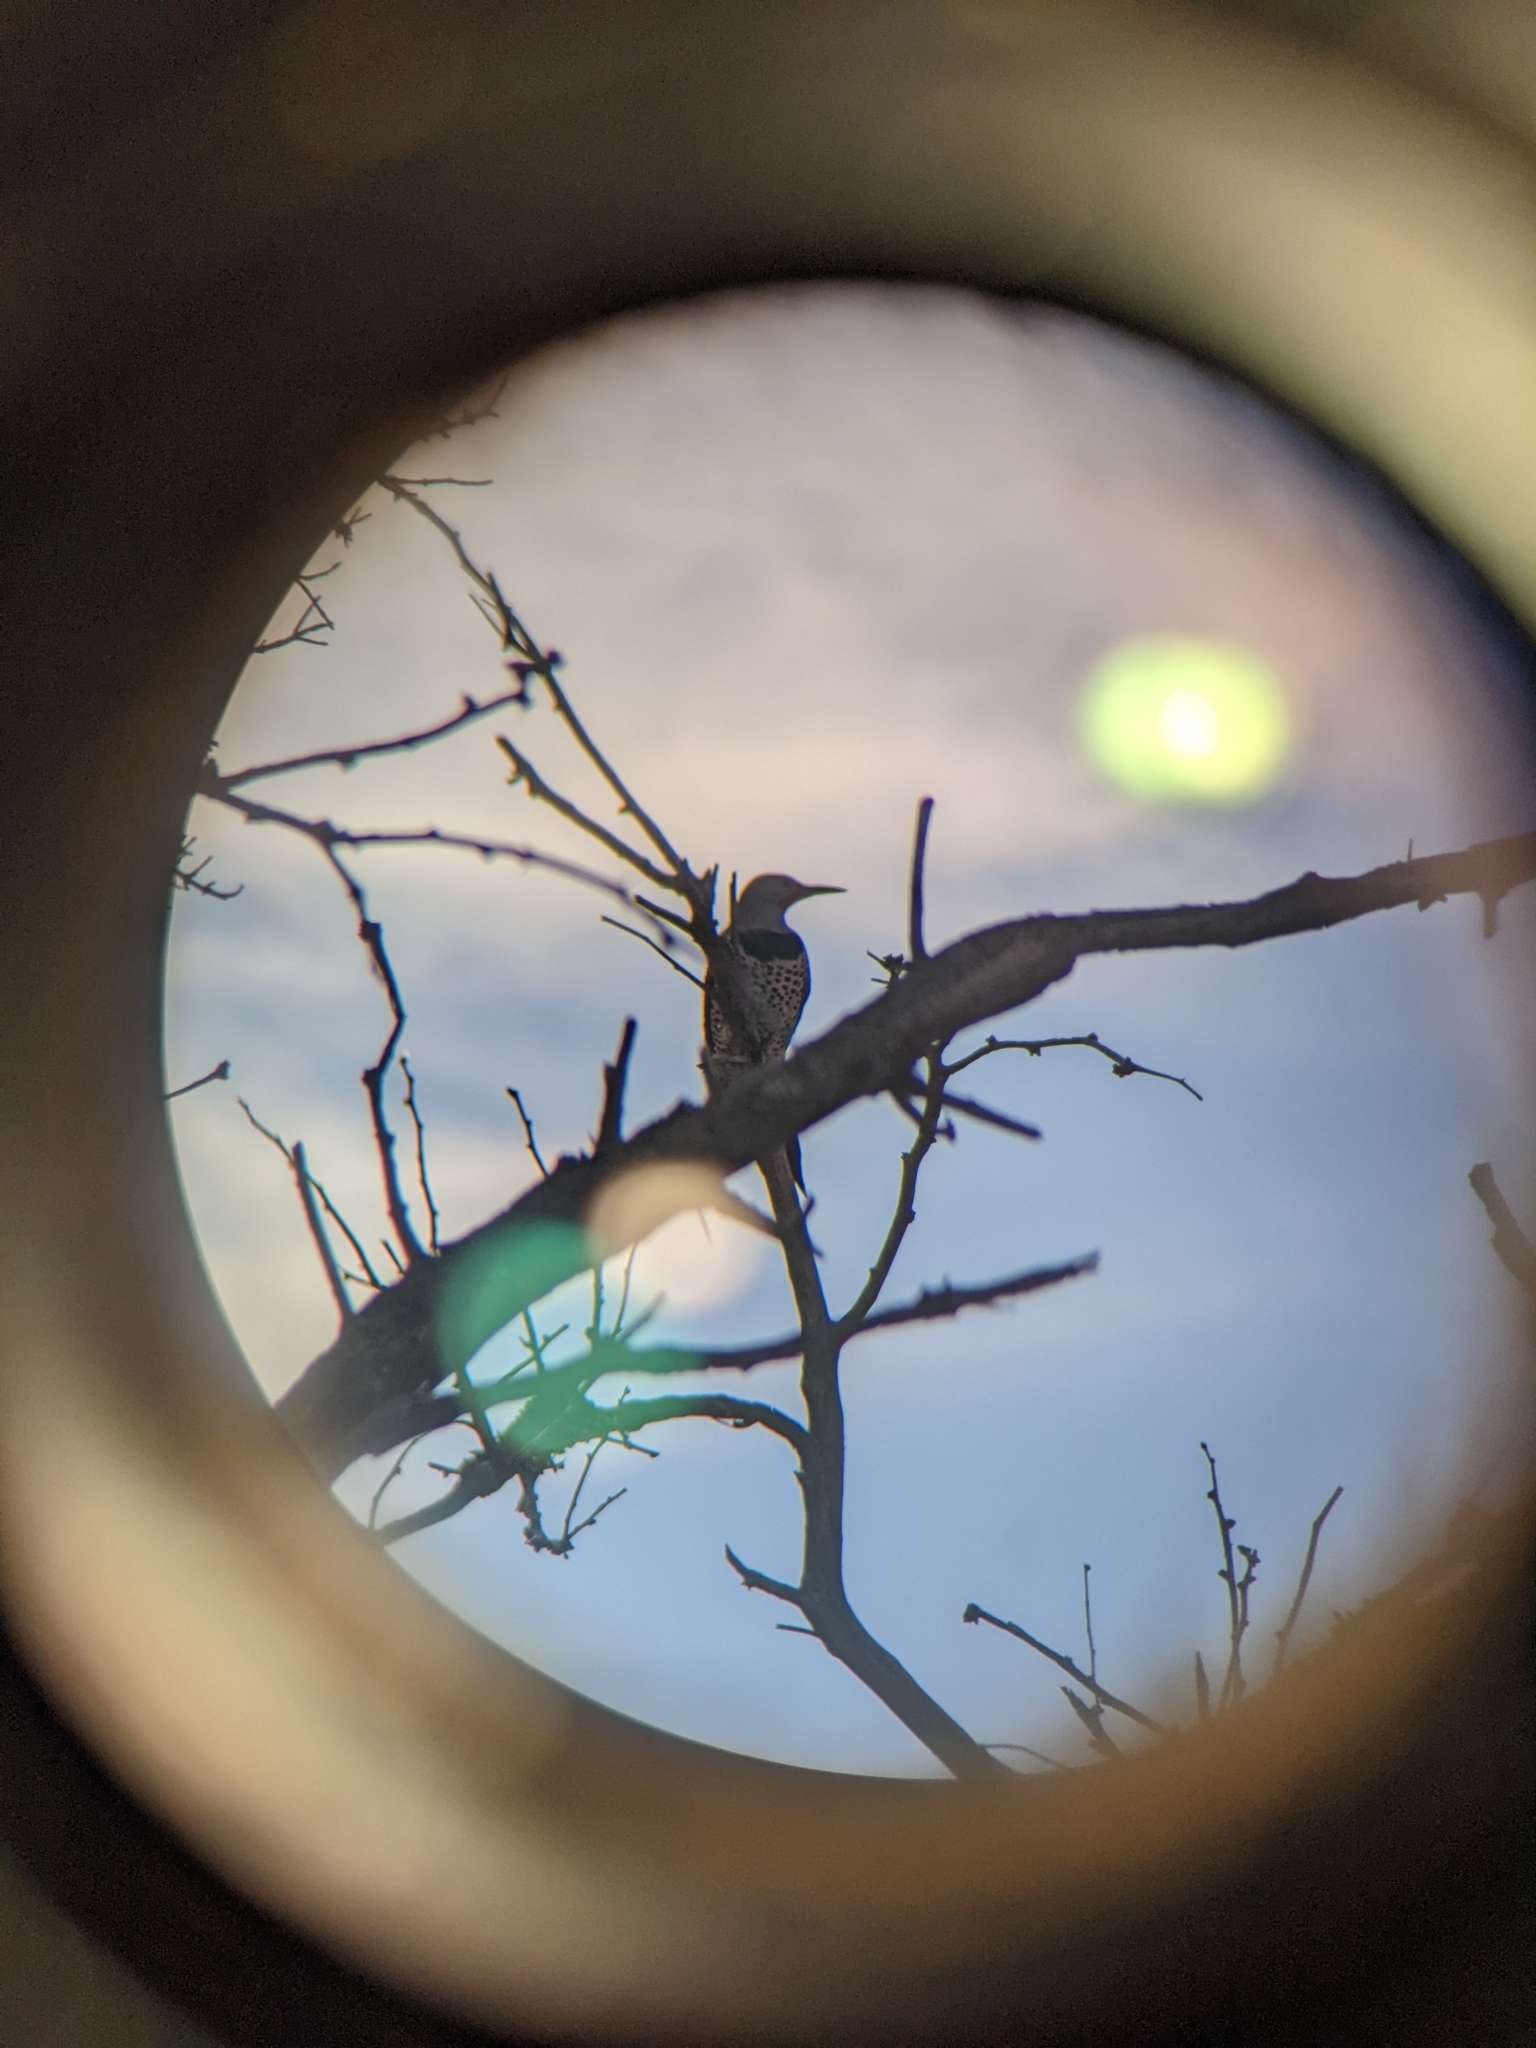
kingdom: Animalia
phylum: Chordata
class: Aves
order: Piciformes
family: Picidae
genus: Colaptes
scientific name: Colaptes auratus
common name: Northern flicker
